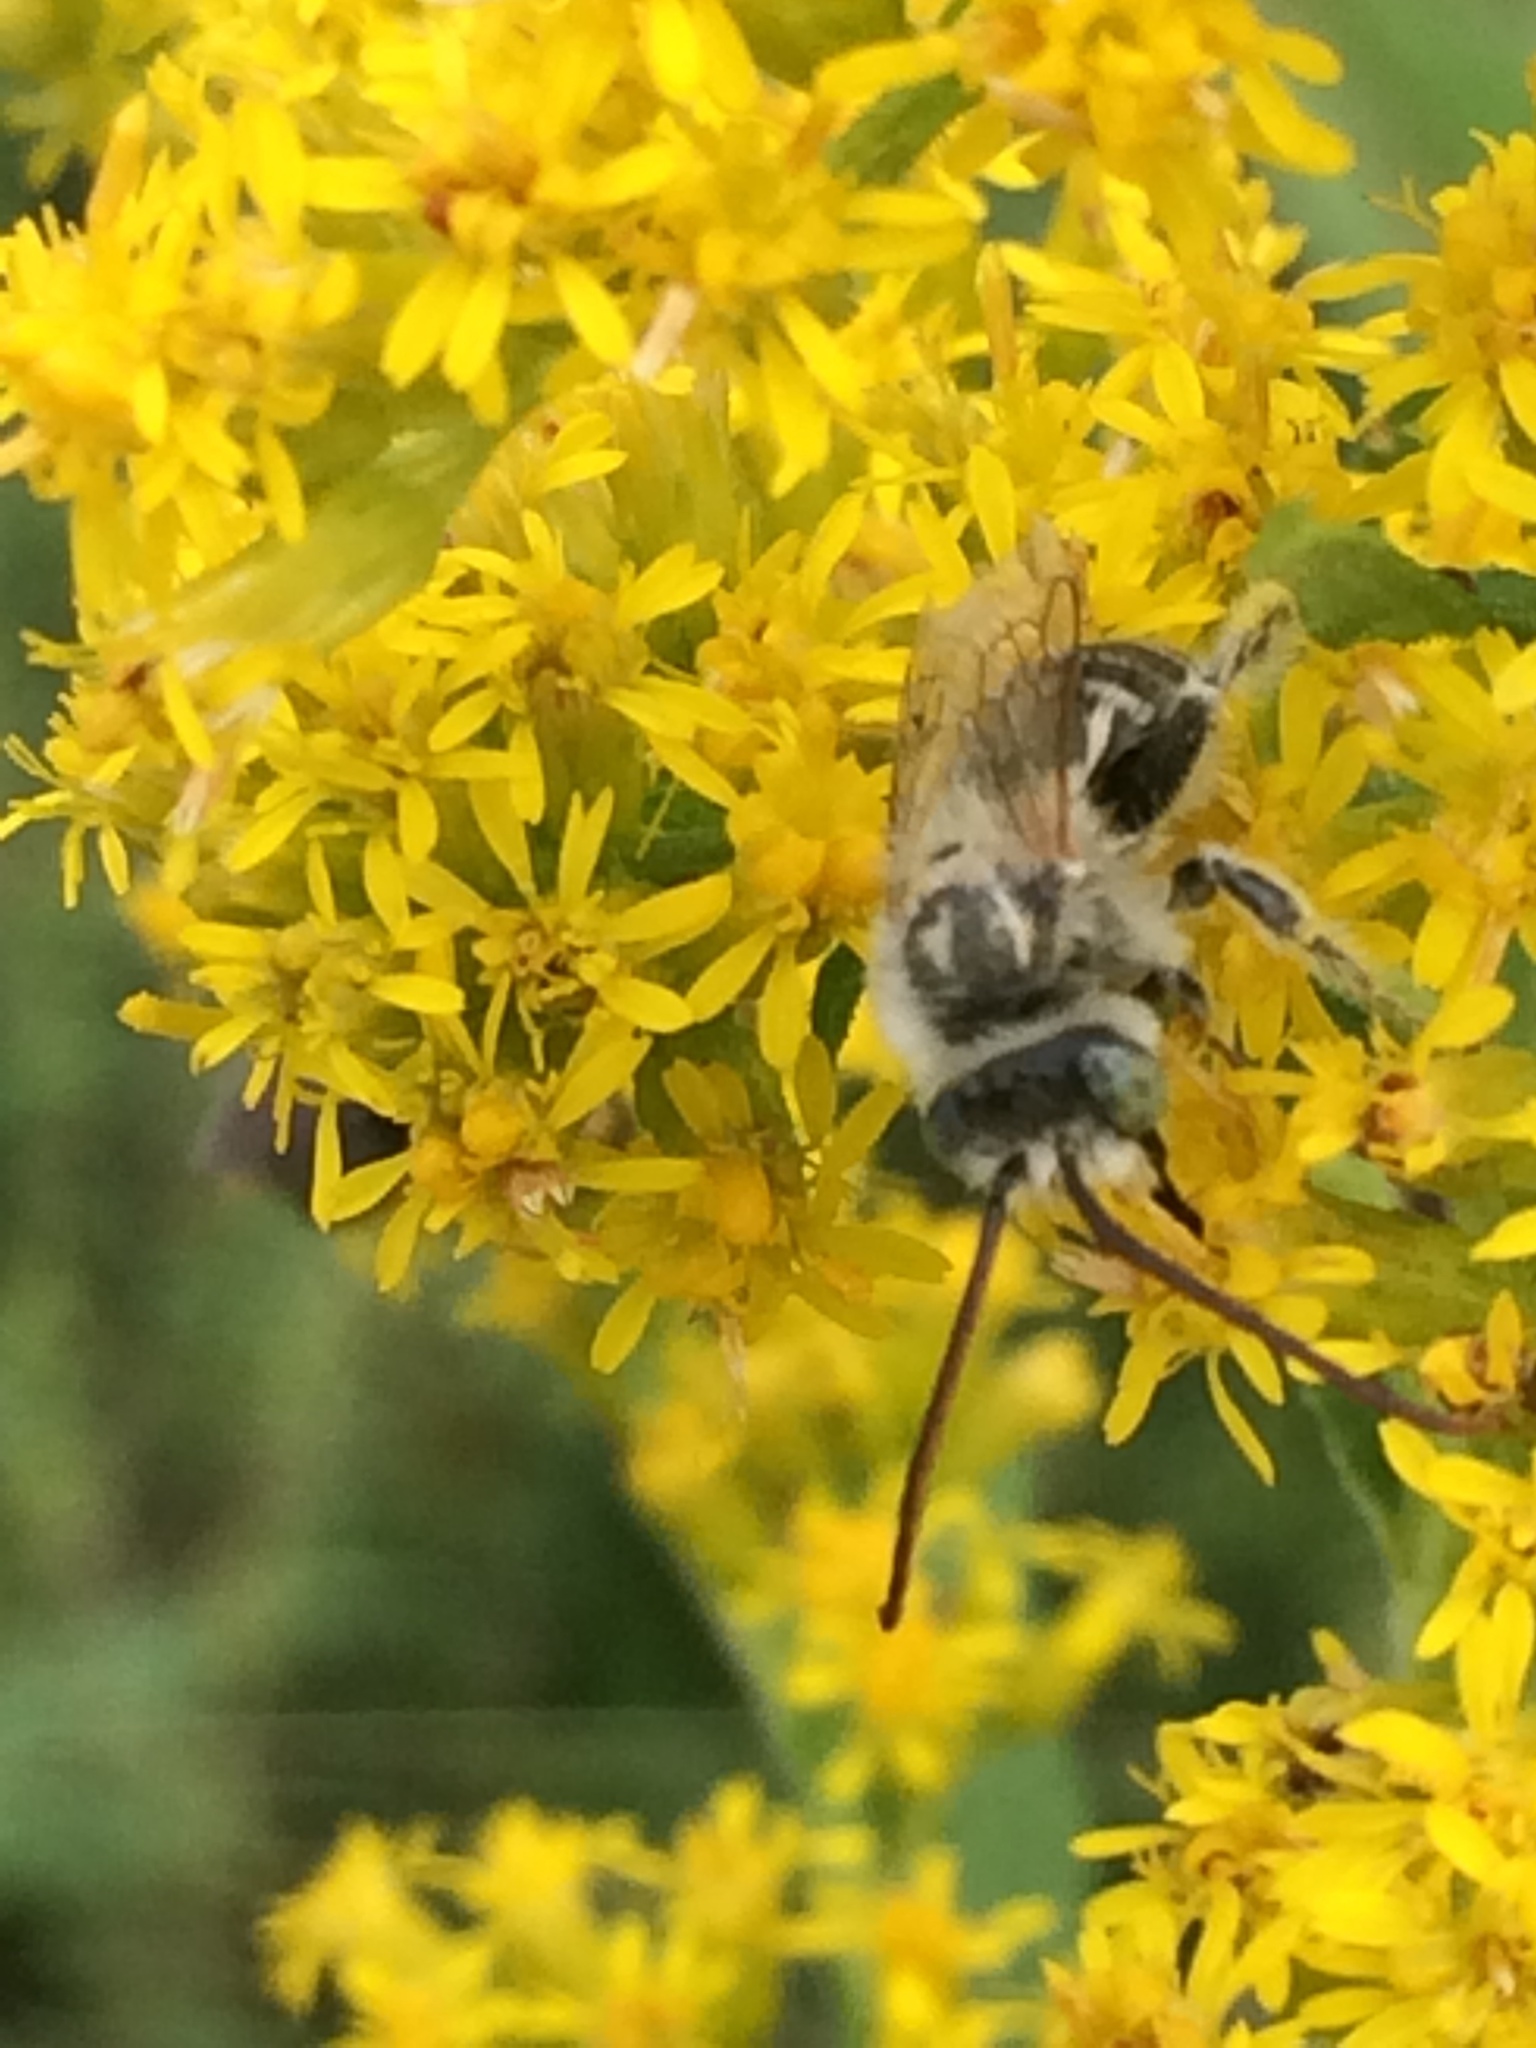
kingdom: Animalia
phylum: Arthropoda
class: Insecta
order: Hymenoptera
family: Apidae
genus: Melissodes
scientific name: Melissodes druriellus
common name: Drury's long-horned bee
